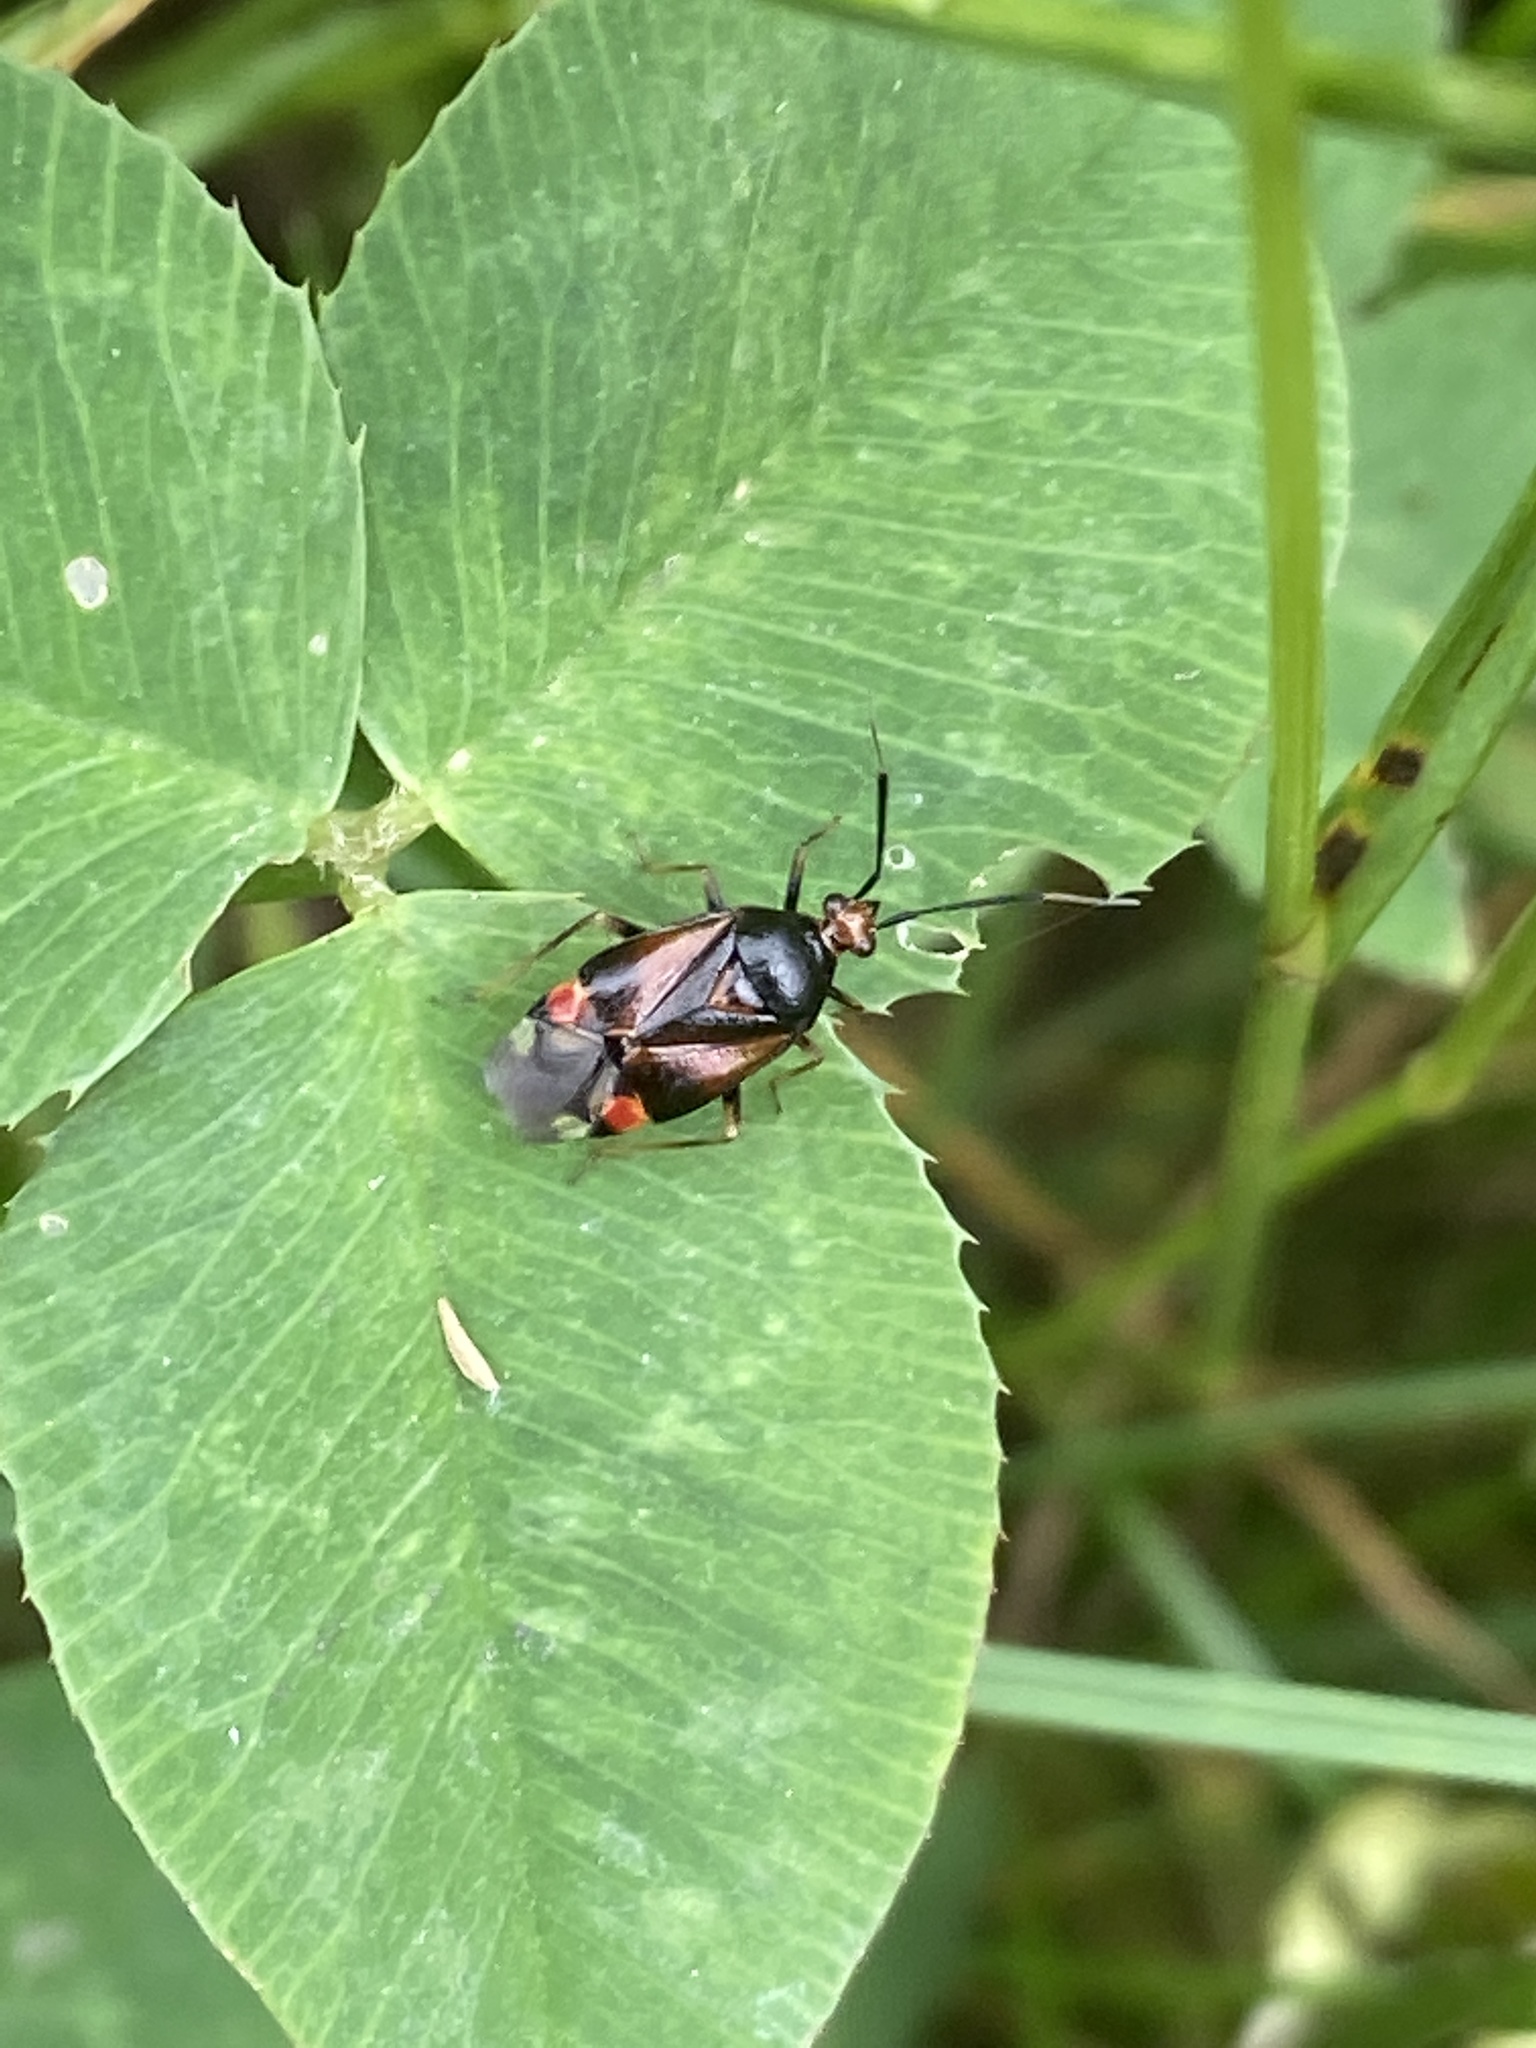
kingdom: Animalia
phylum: Arthropoda
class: Insecta
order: Hemiptera
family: Miridae
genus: Deraeocoris
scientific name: Deraeocoris ruber
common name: Plant bug
